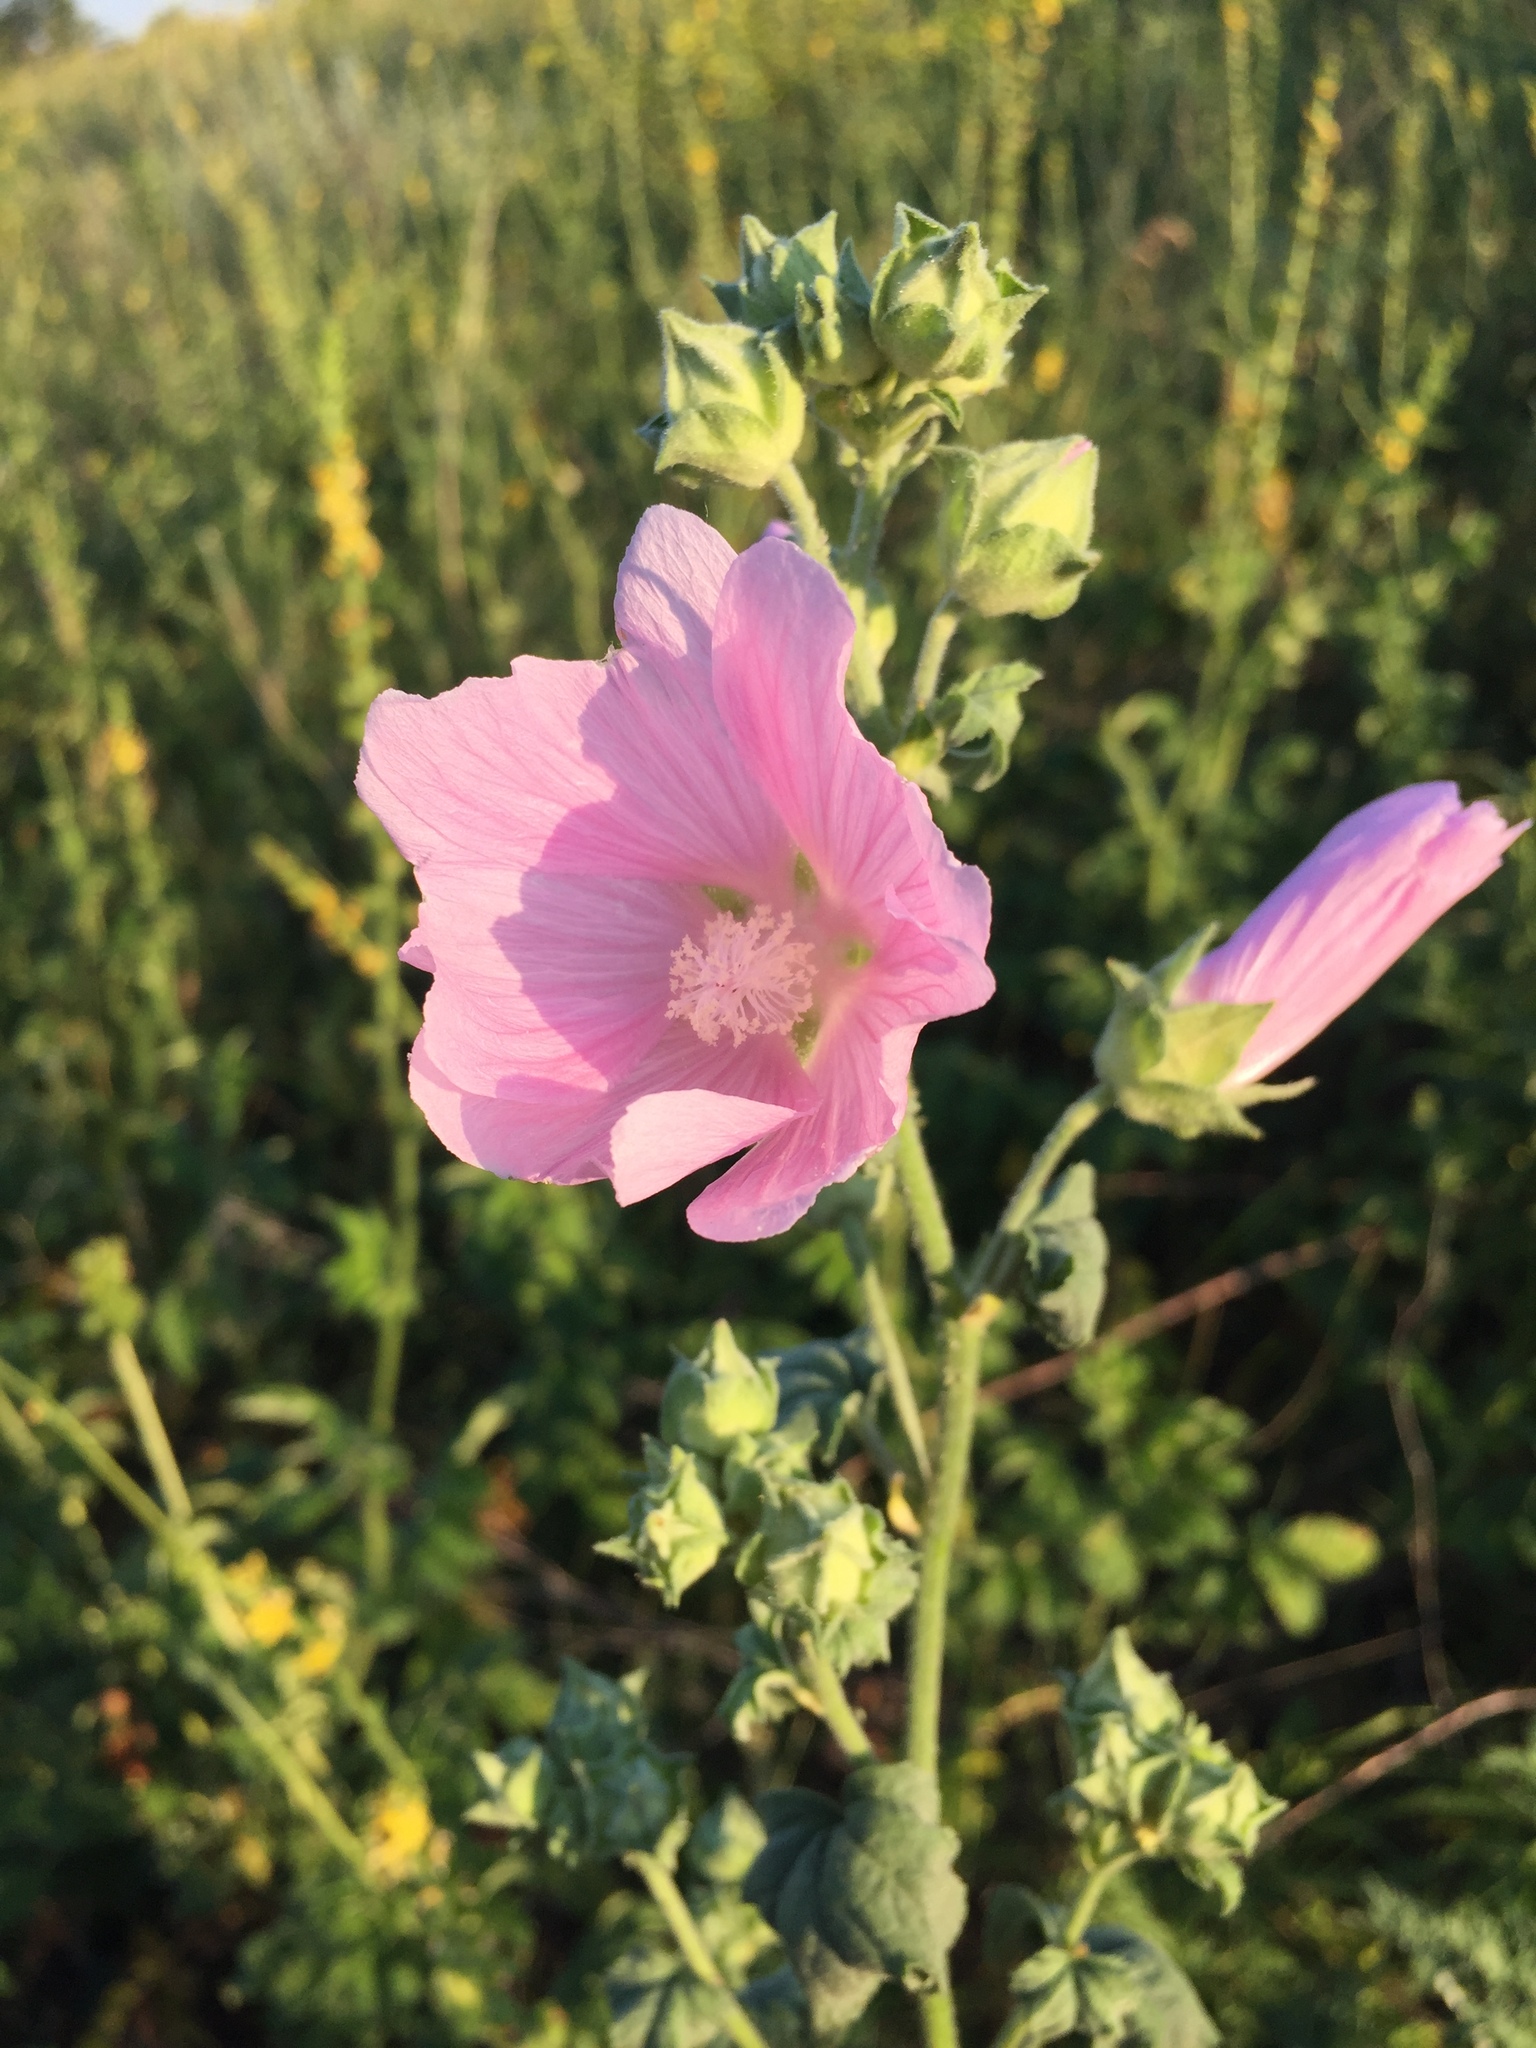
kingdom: Plantae
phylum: Tracheophyta
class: Magnoliopsida
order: Malvales
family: Malvaceae
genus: Malva
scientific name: Malva thuringiaca
